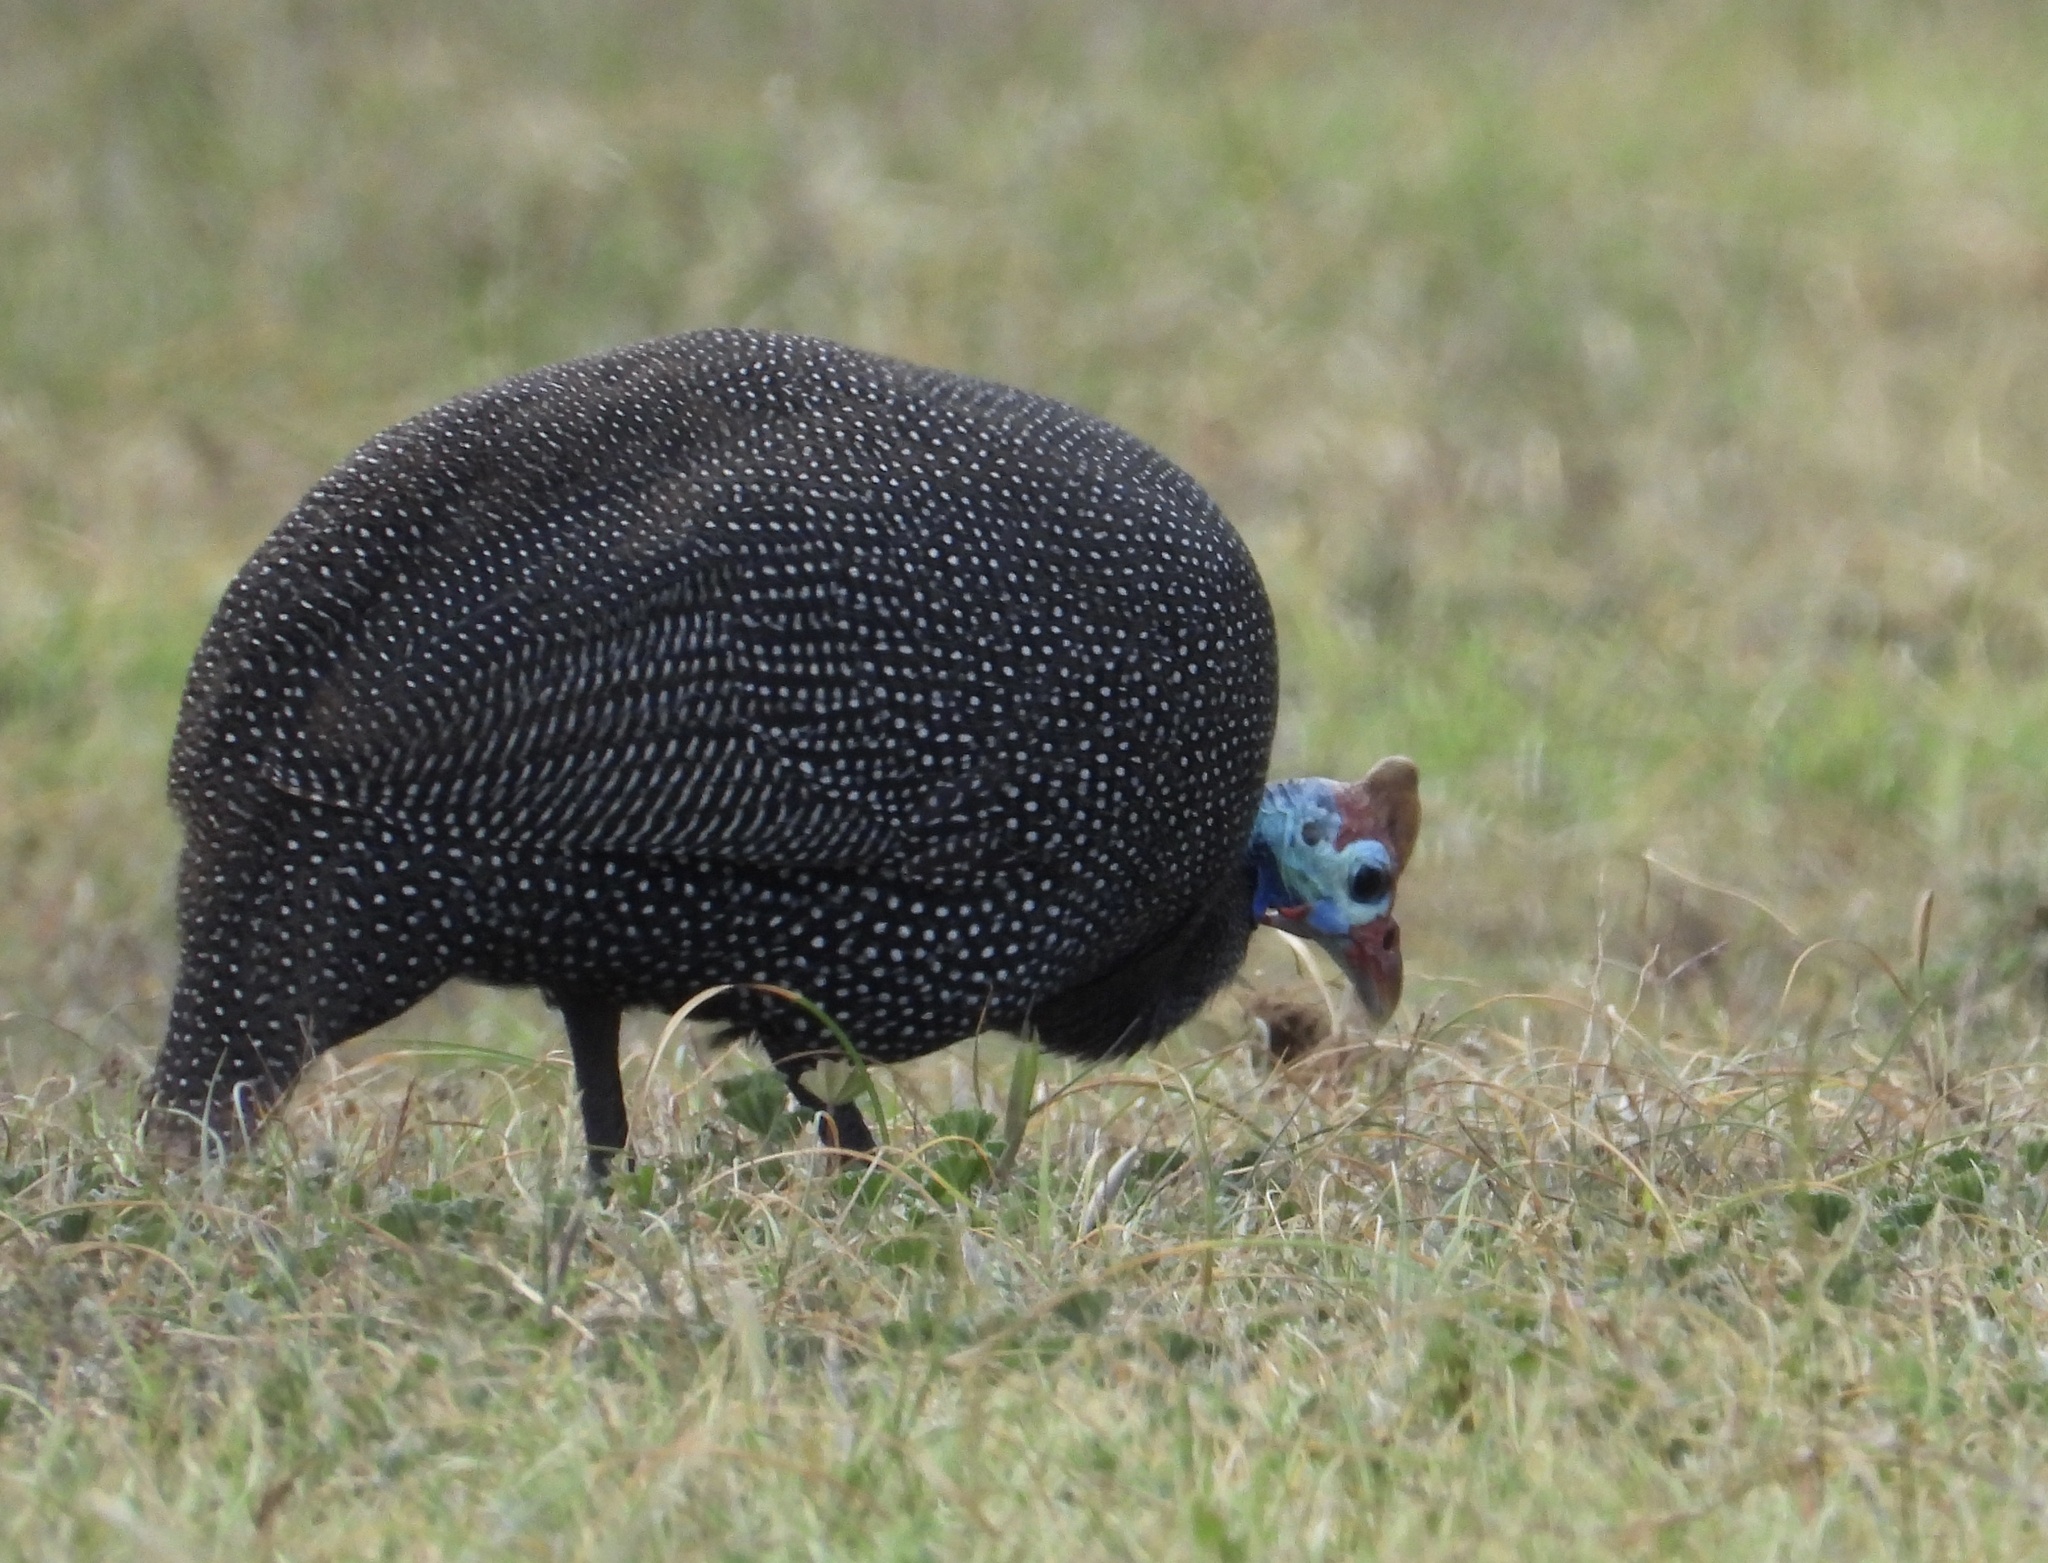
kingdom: Animalia
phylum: Chordata
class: Aves
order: Galliformes
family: Numididae
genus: Numida
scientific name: Numida meleagris
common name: Helmeted guineafowl
